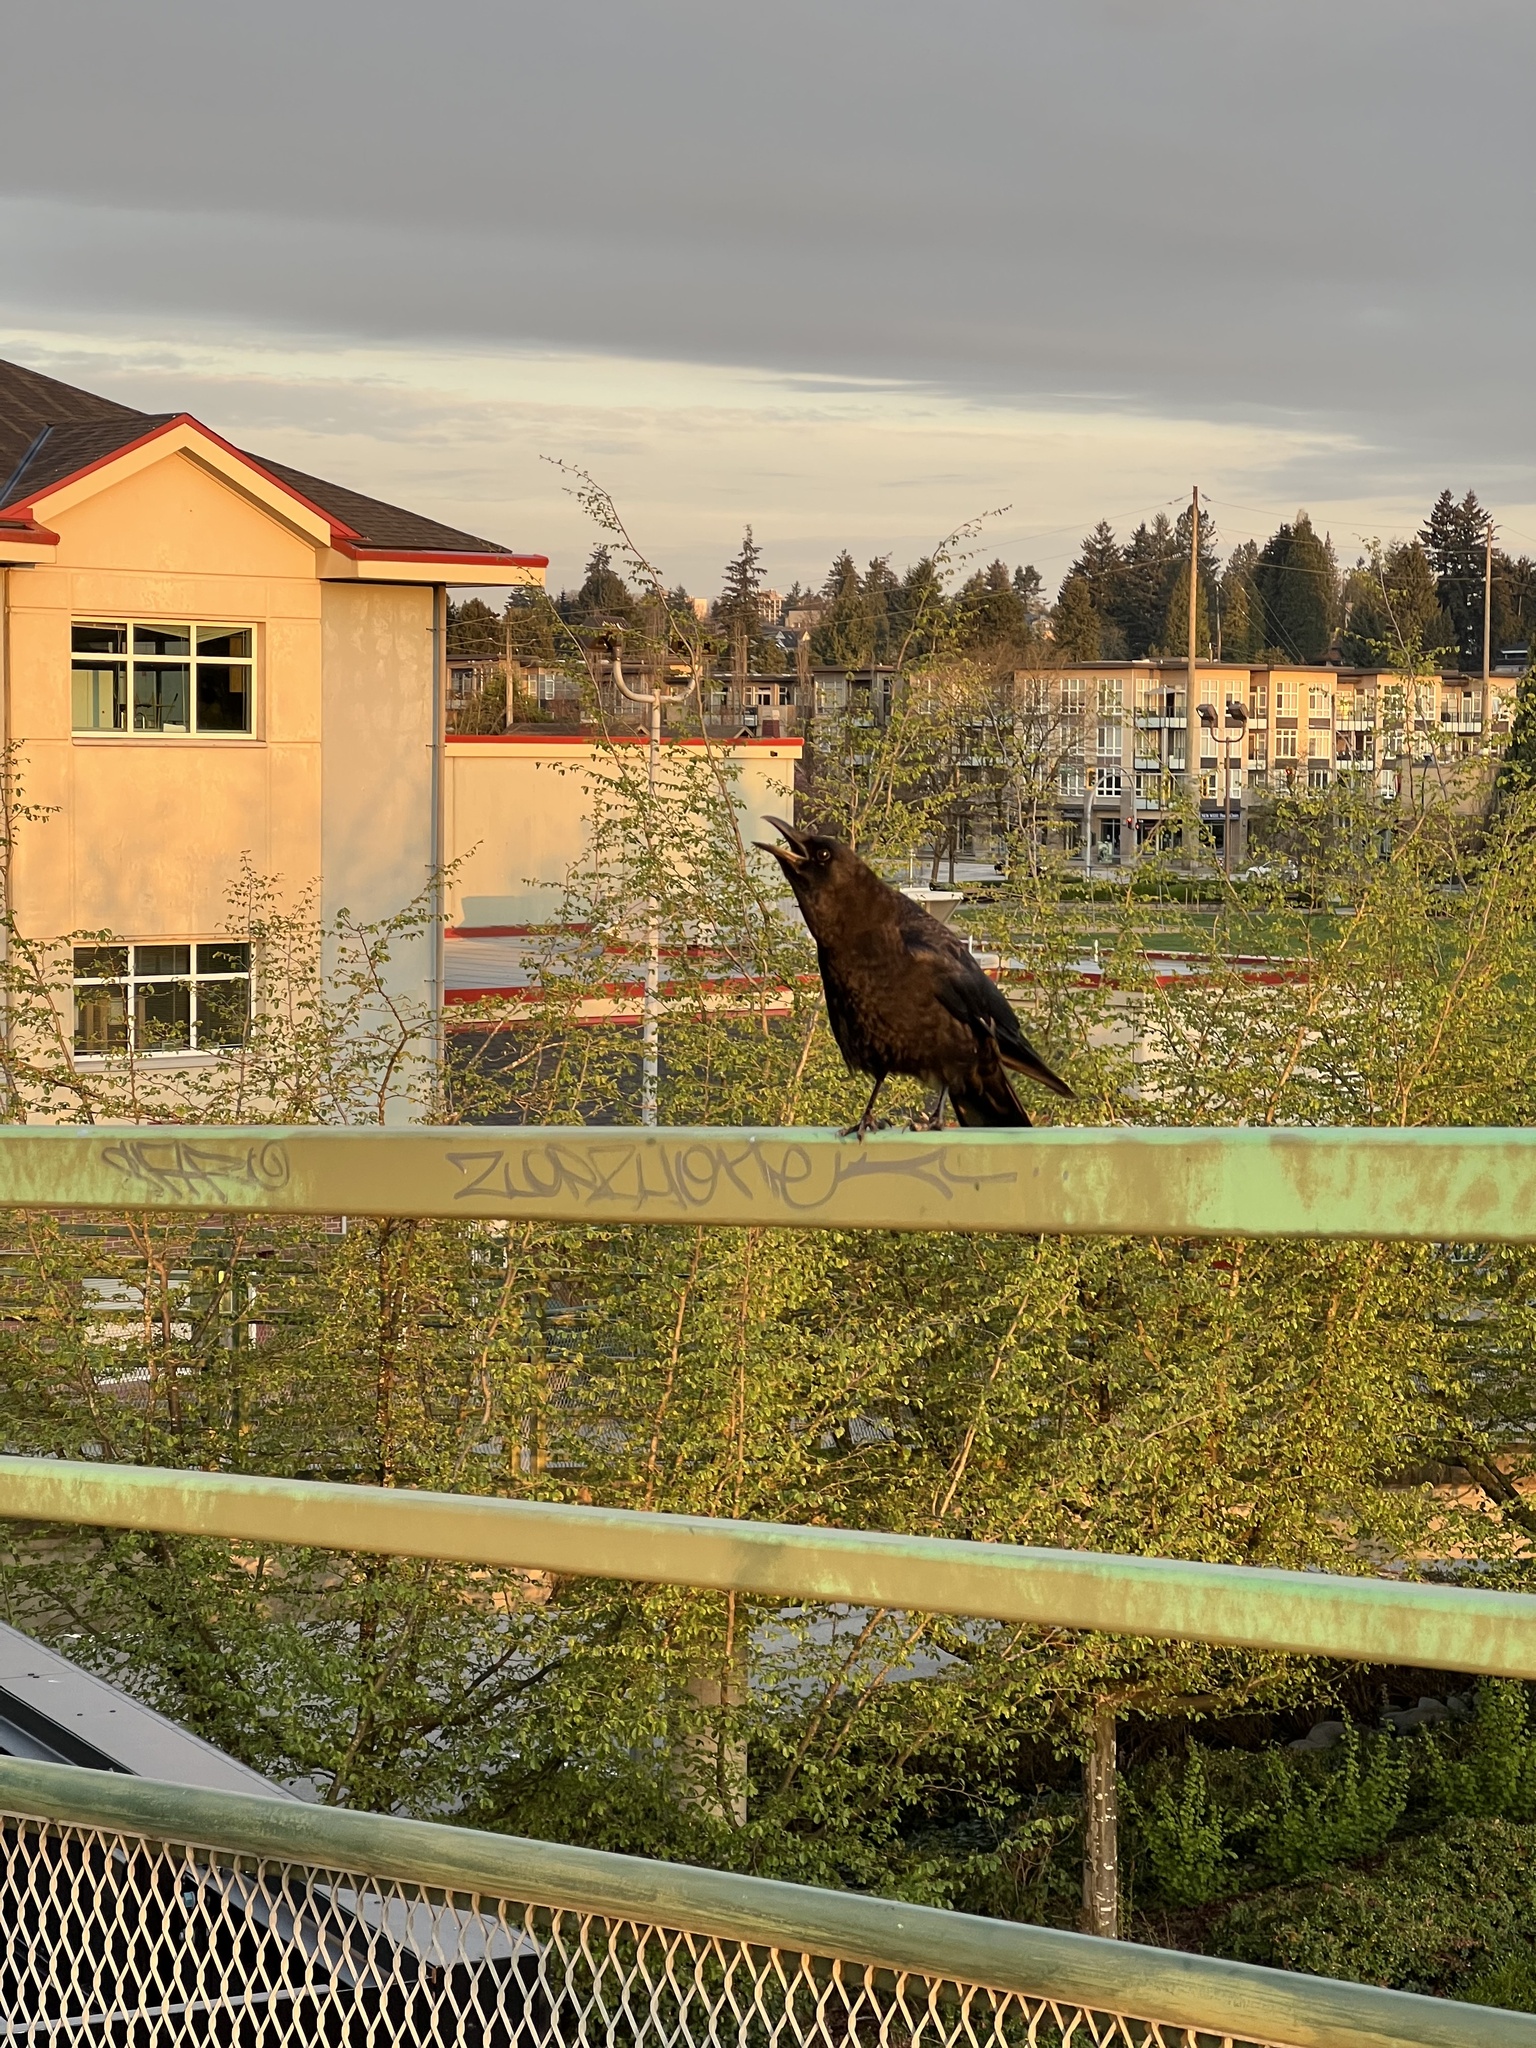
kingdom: Animalia
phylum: Chordata
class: Aves
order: Passeriformes
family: Corvidae
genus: Corvus
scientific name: Corvus brachyrhynchos
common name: American crow
